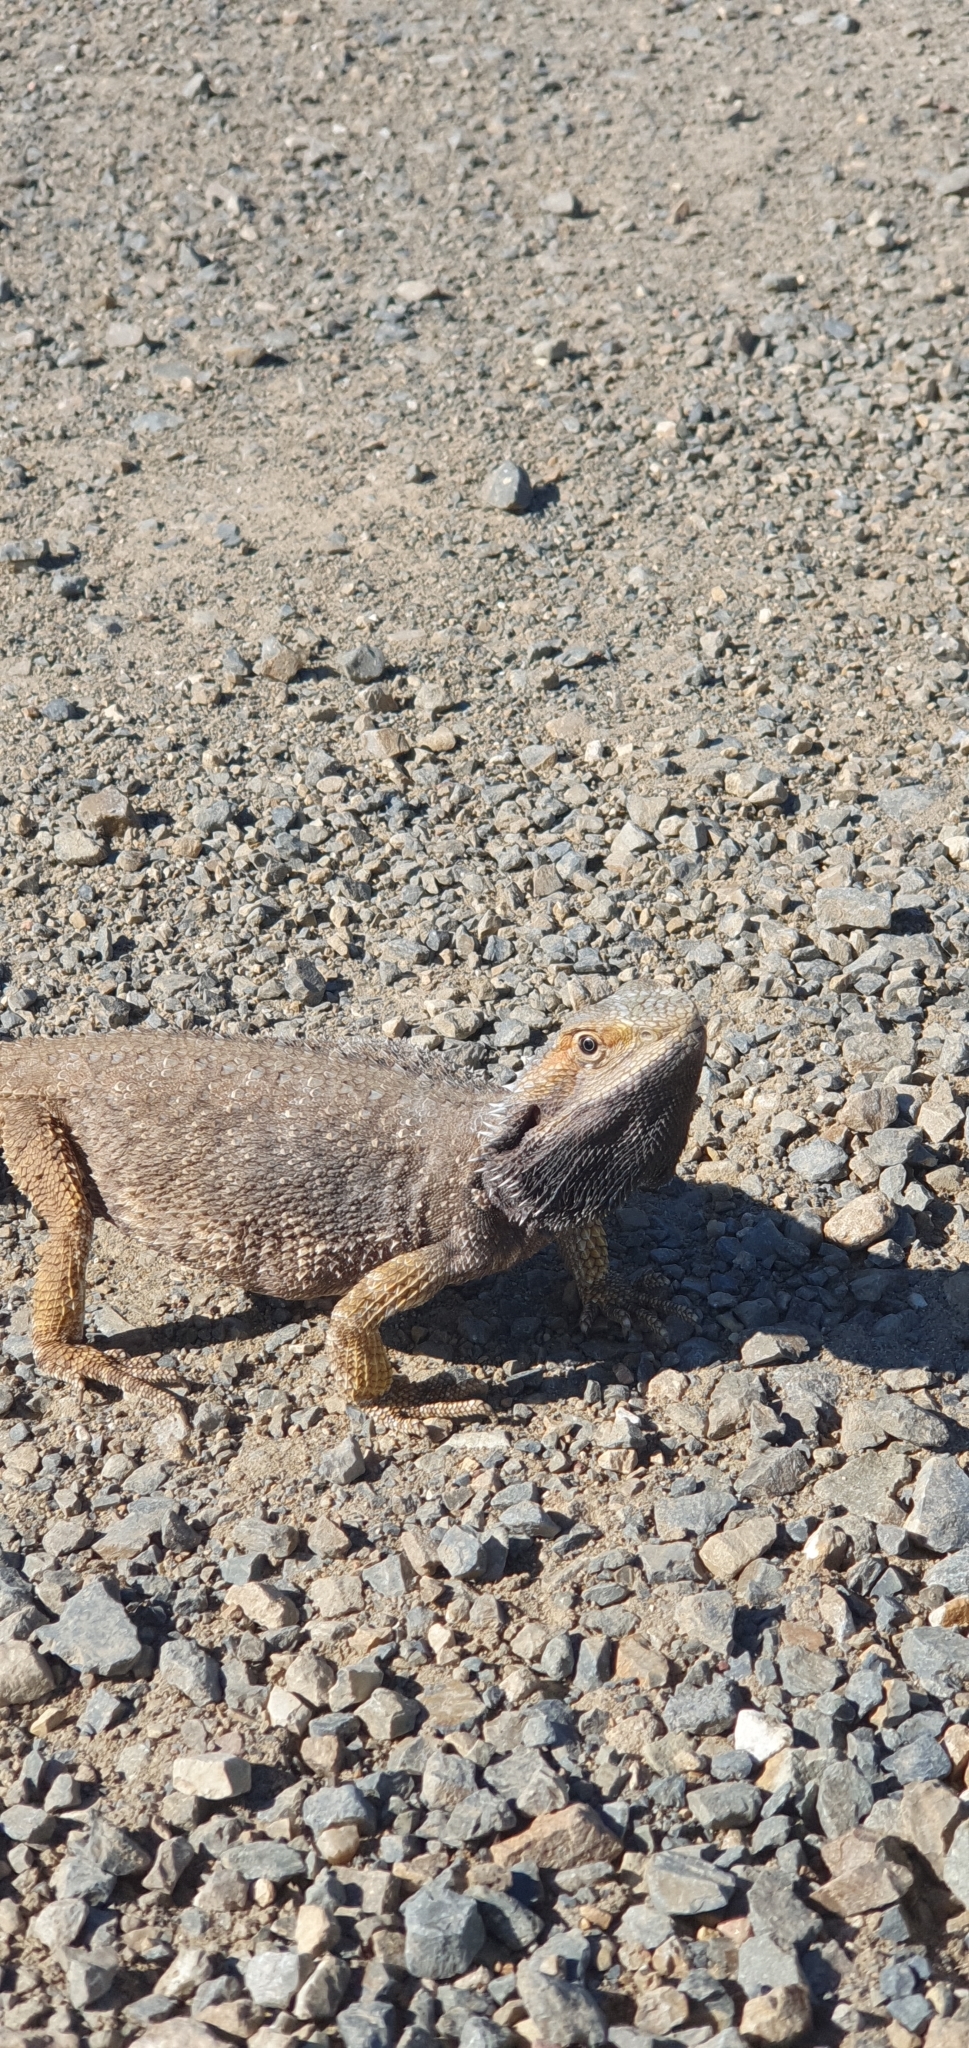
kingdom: Animalia
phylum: Chordata
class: Squamata
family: Agamidae
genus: Pogona
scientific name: Pogona barbata
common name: Bearded dragon
